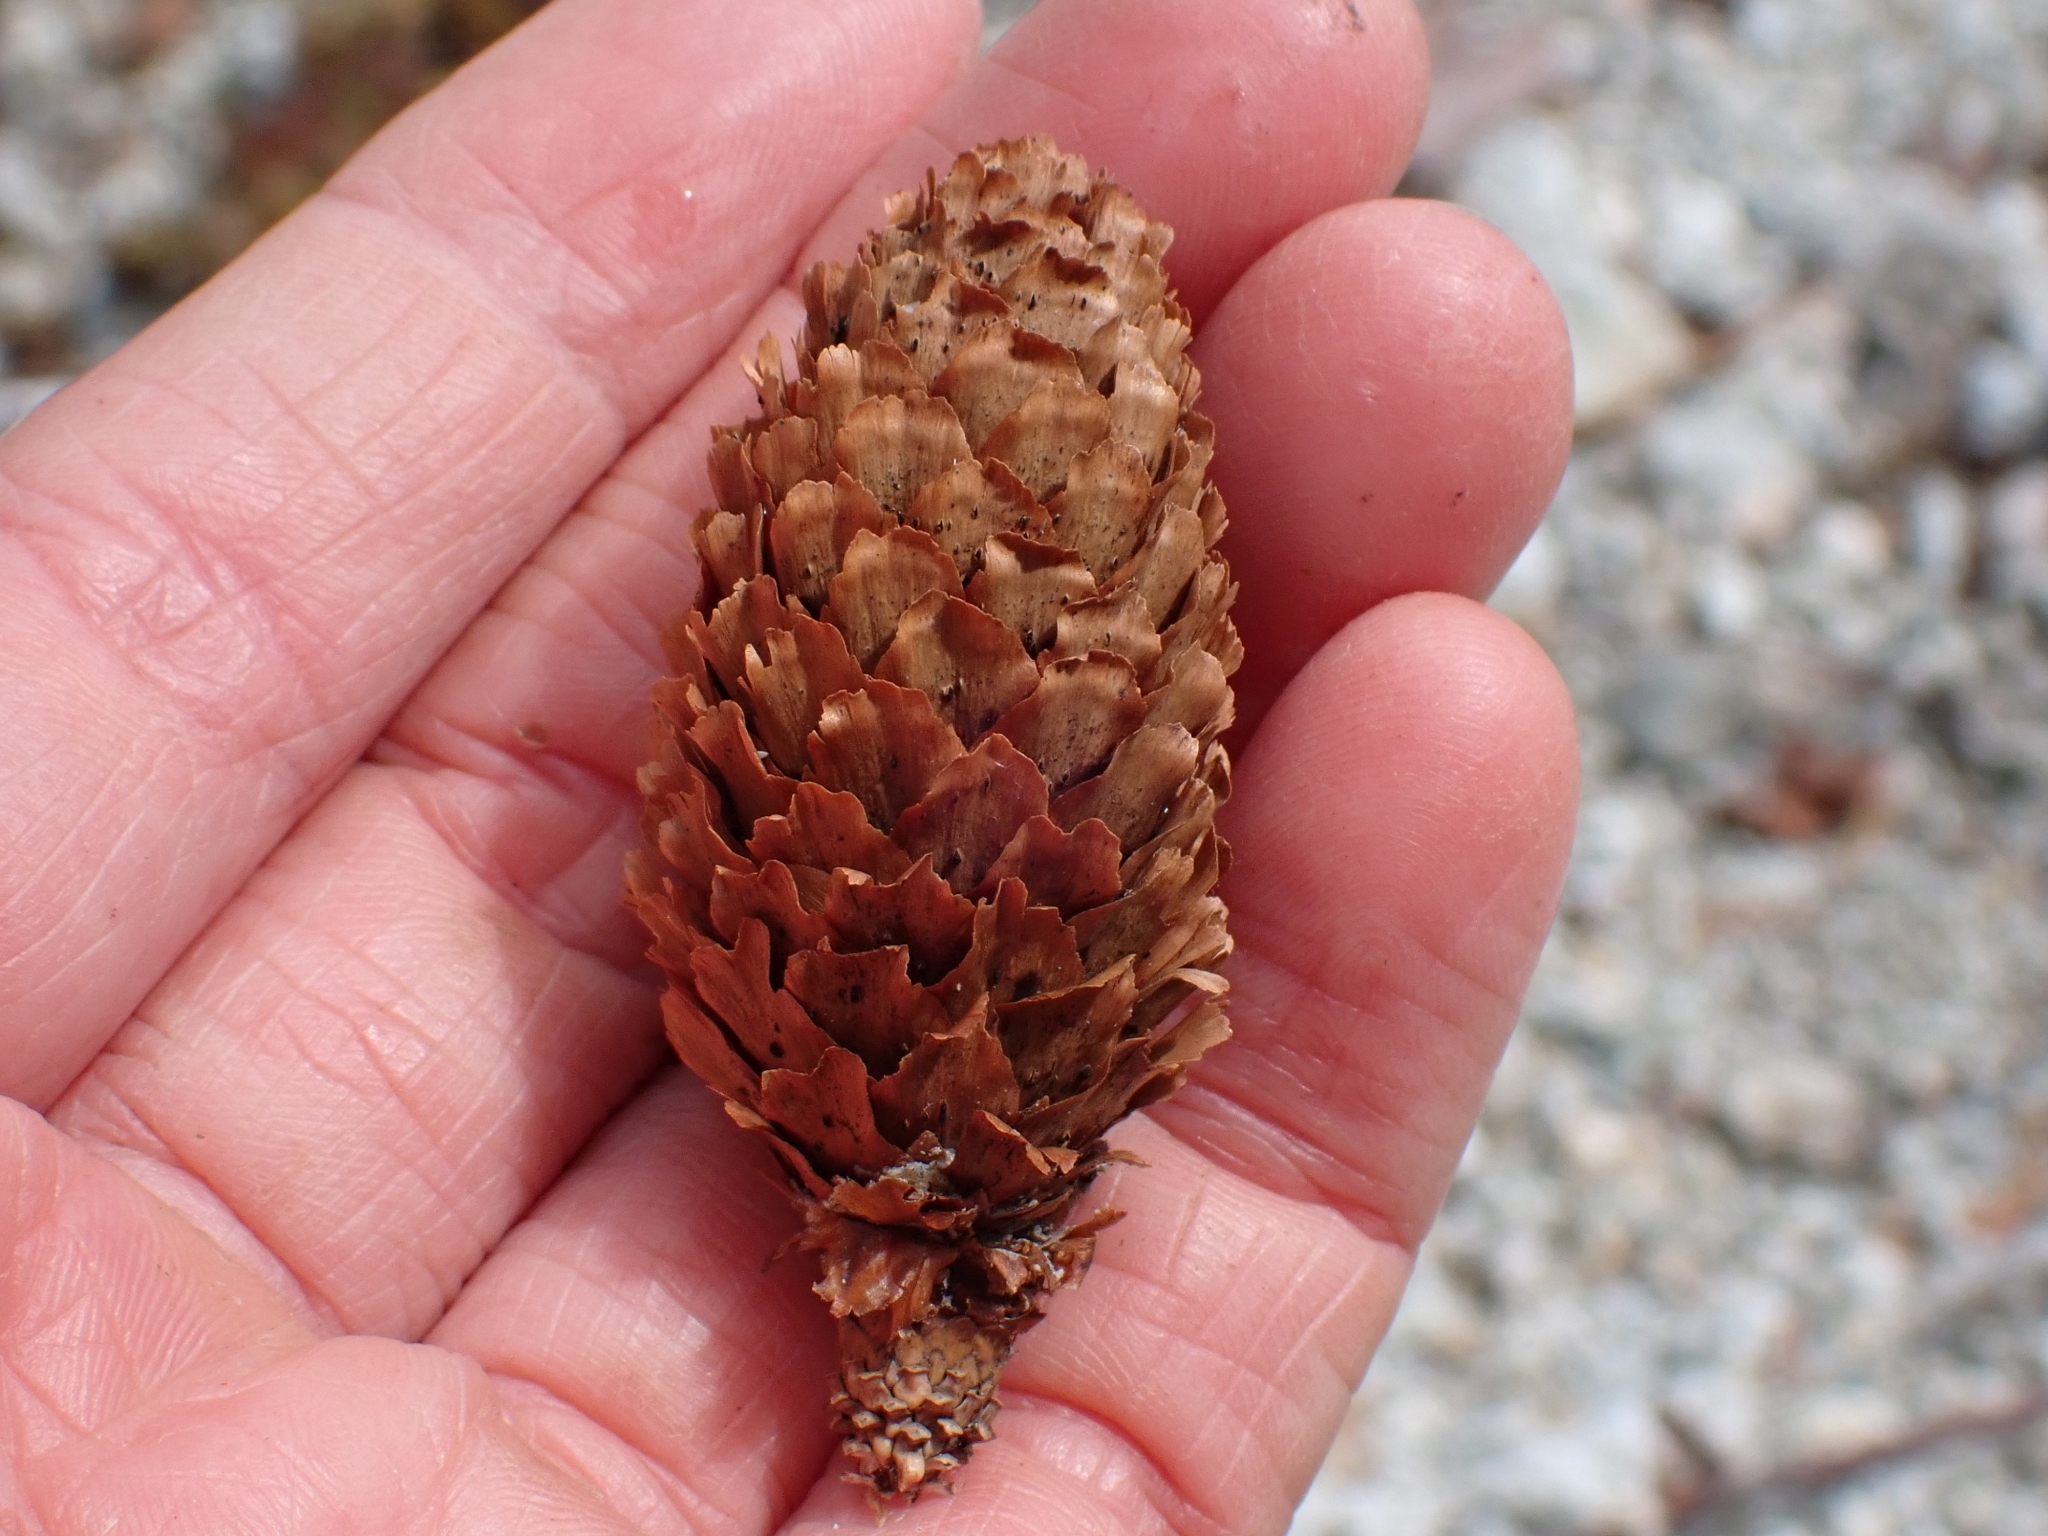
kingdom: Plantae
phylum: Tracheophyta
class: Pinopsida
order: Pinales
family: Pinaceae
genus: Picea
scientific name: Picea sitchensis
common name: Sitka spruce
